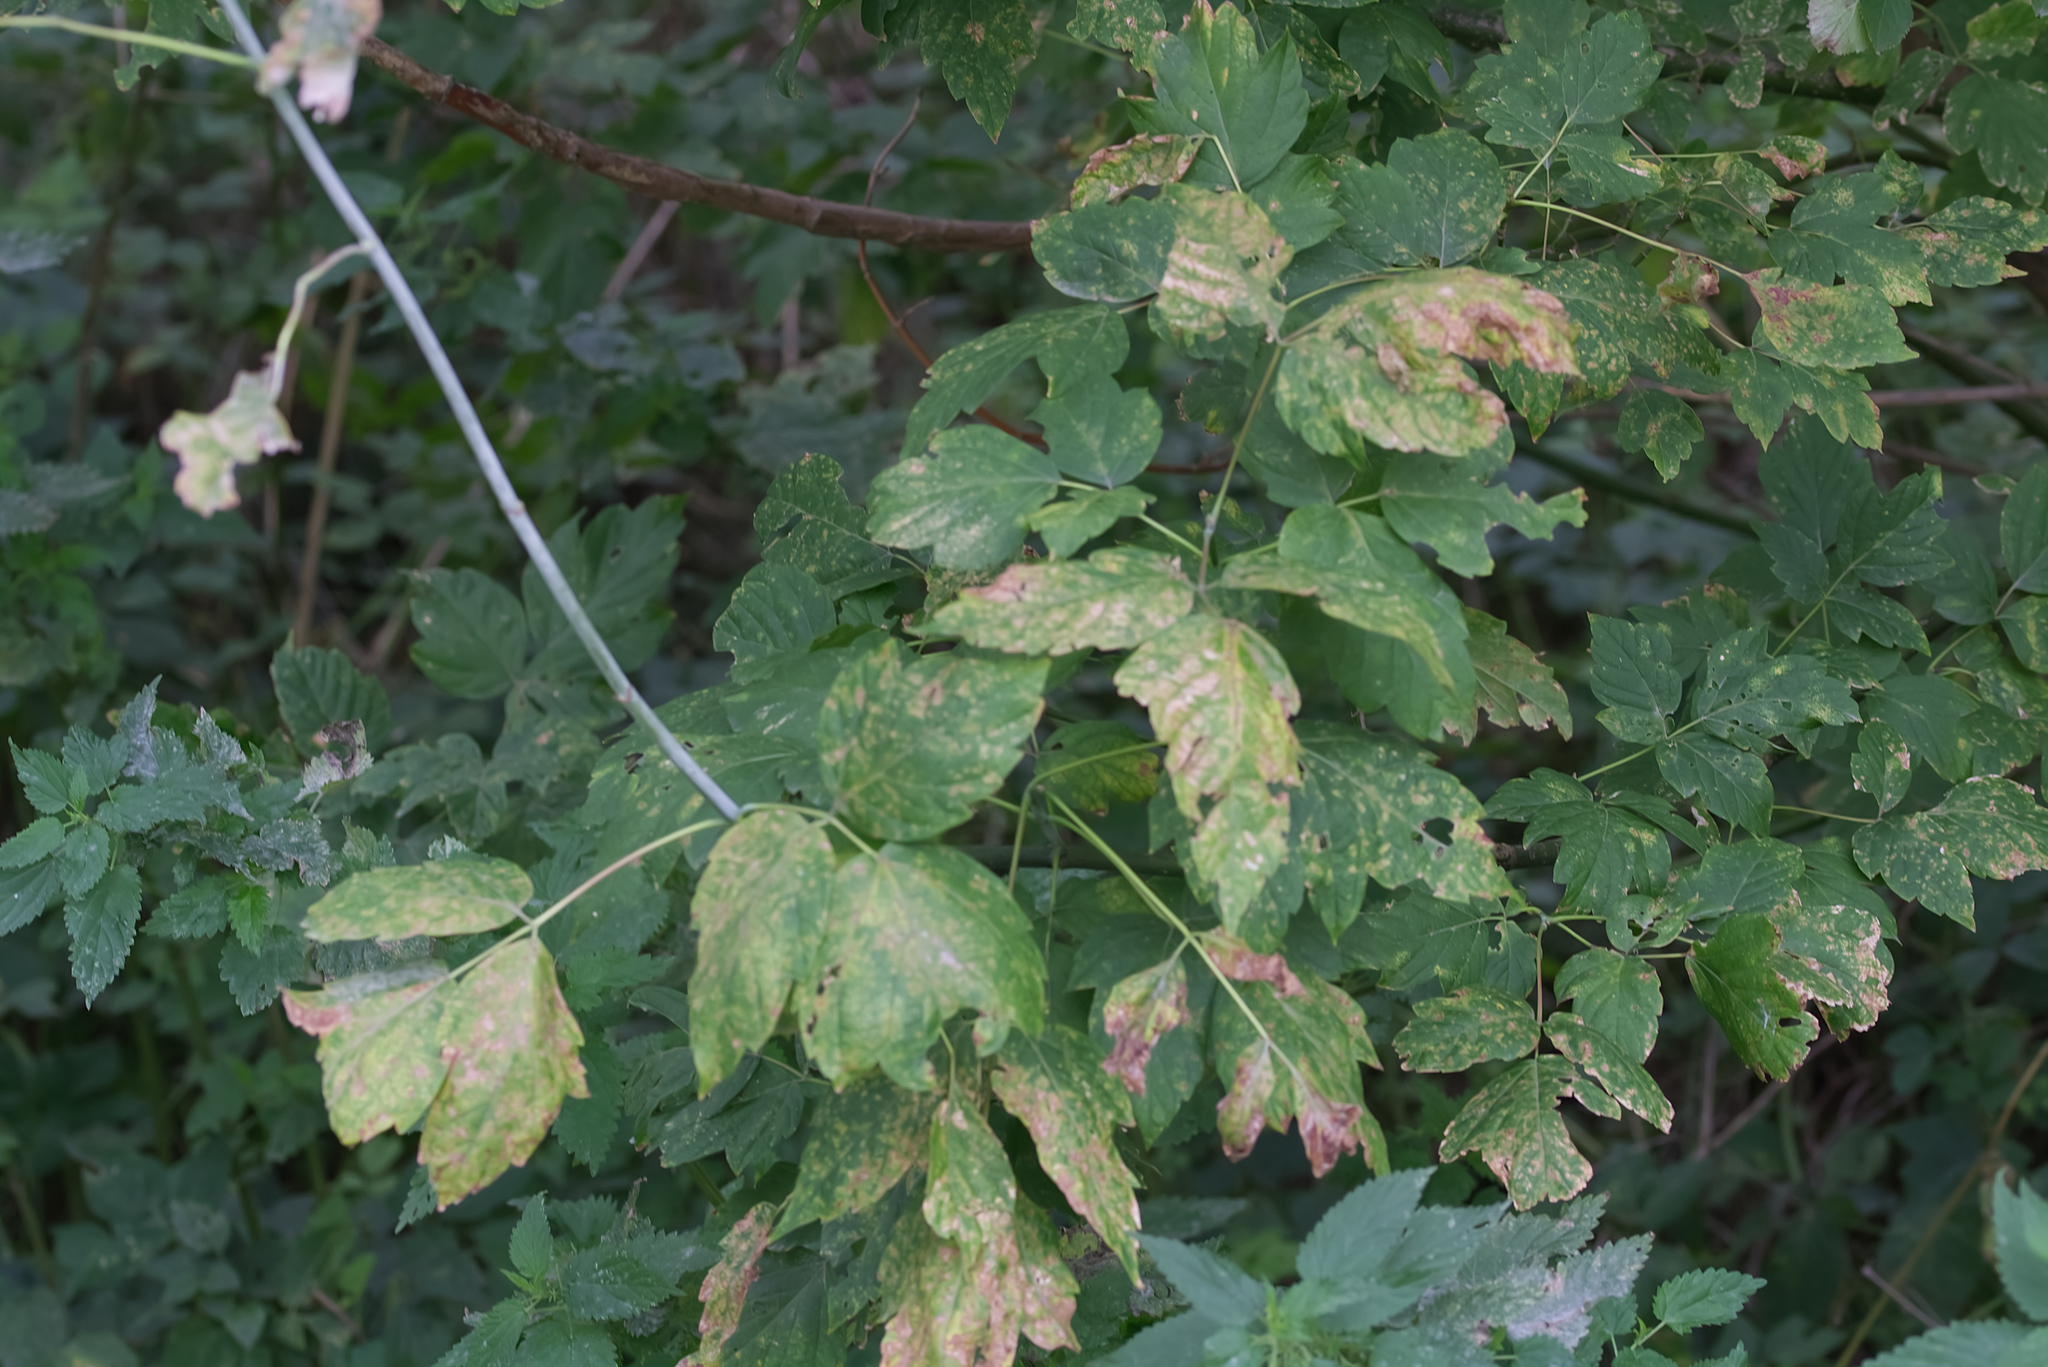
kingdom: Plantae
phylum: Tracheophyta
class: Magnoliopsida
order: Sapindales
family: Sapindaceae
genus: Acer
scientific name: Acer negundo
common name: Ashleaf maple
